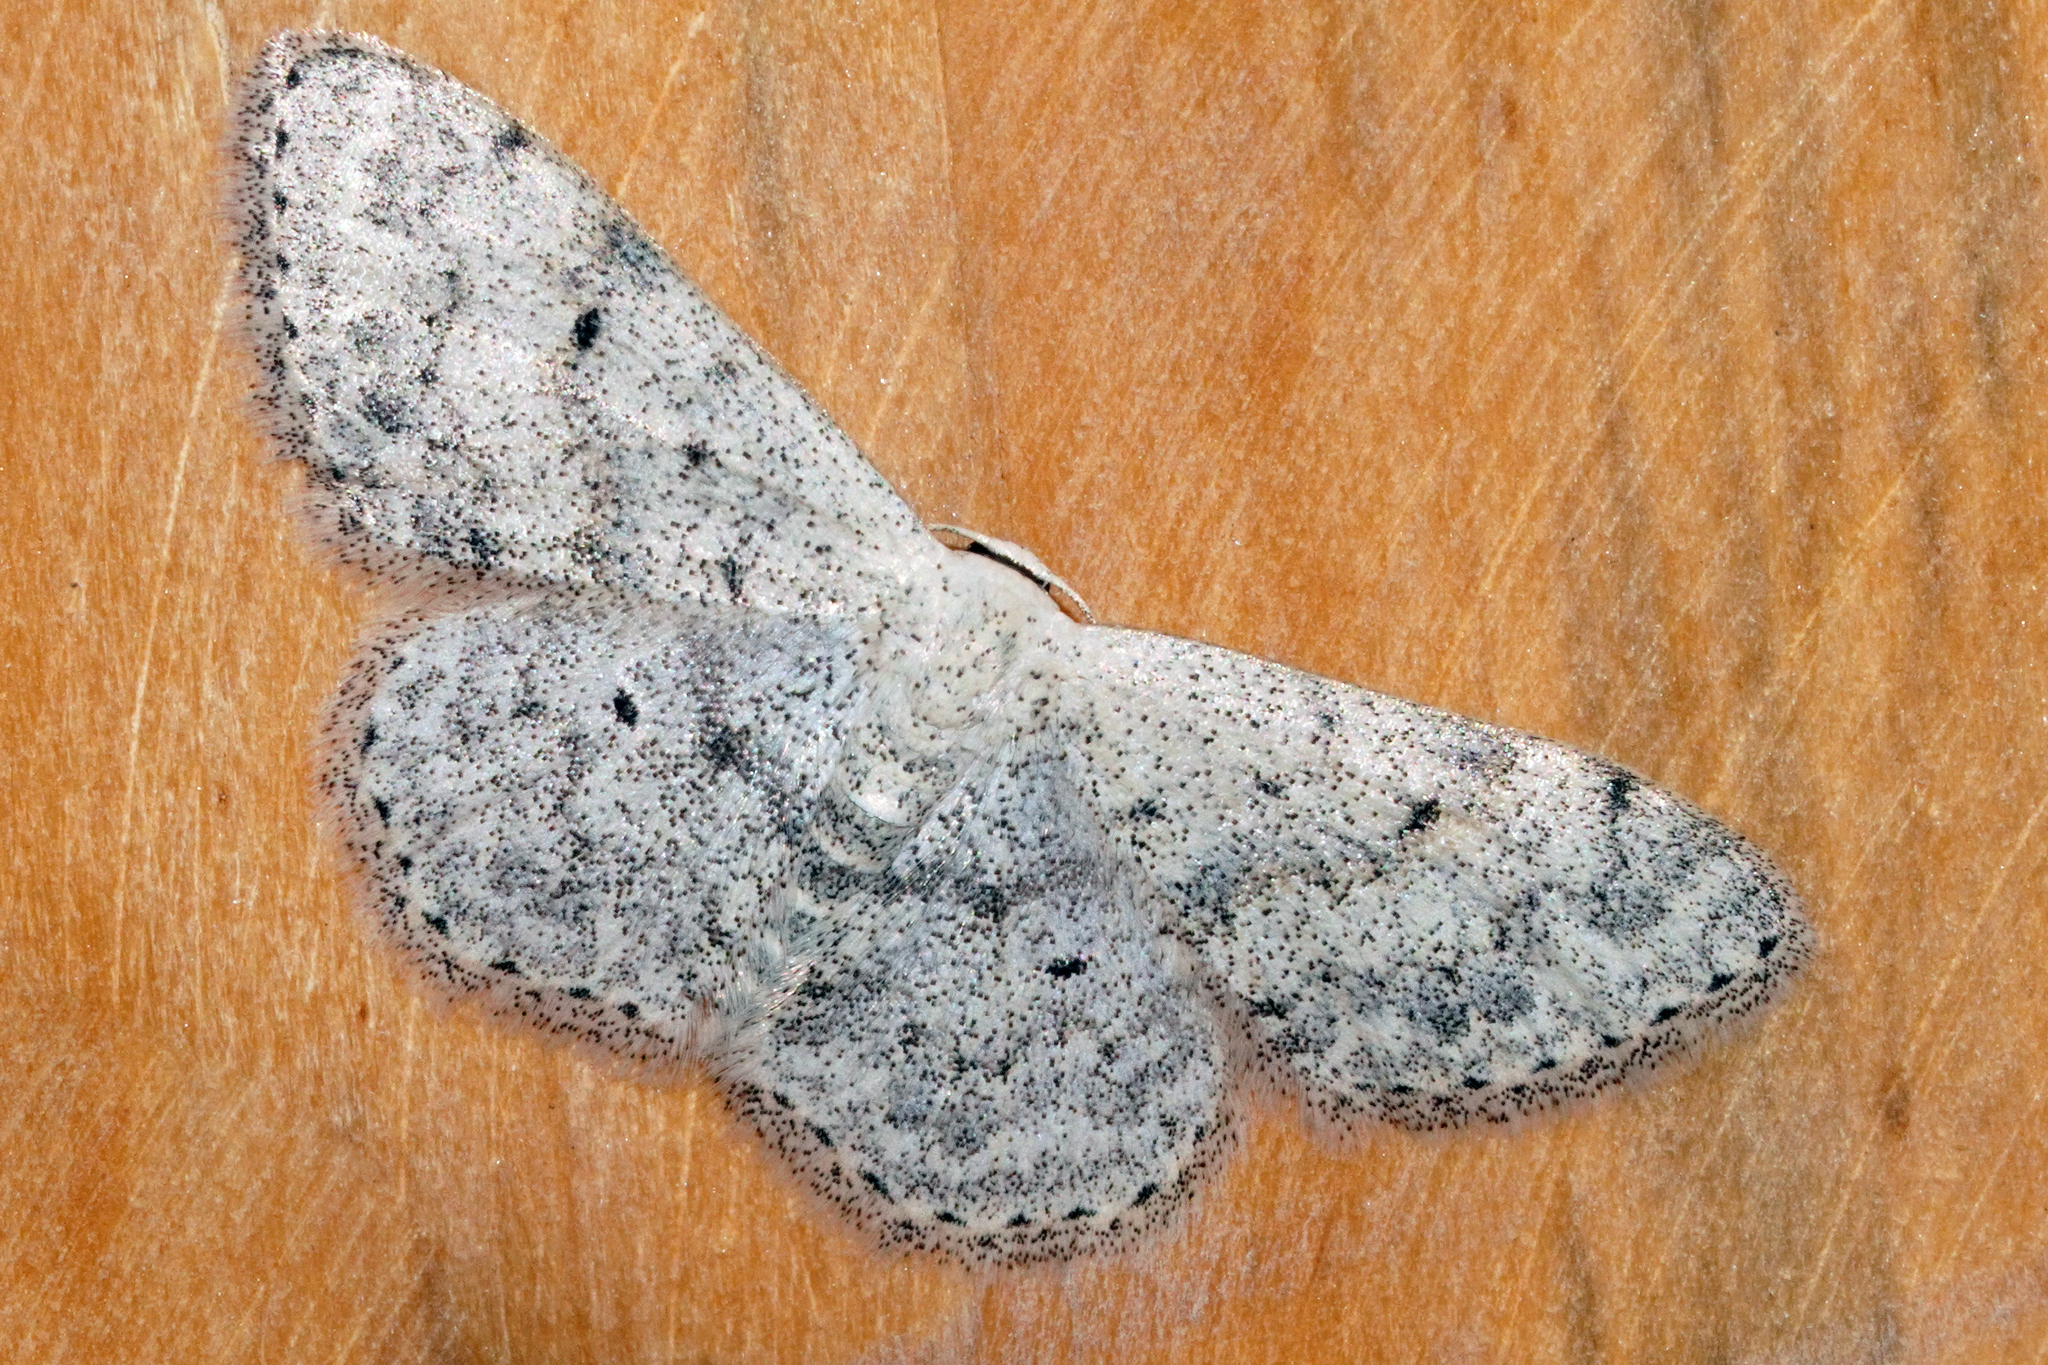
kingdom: Animalia
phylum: Arthropoda
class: Insecta
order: Lepidoptera
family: Geometridae
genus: Scopula
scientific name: Scopula marginepunctata
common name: Mullein wave
